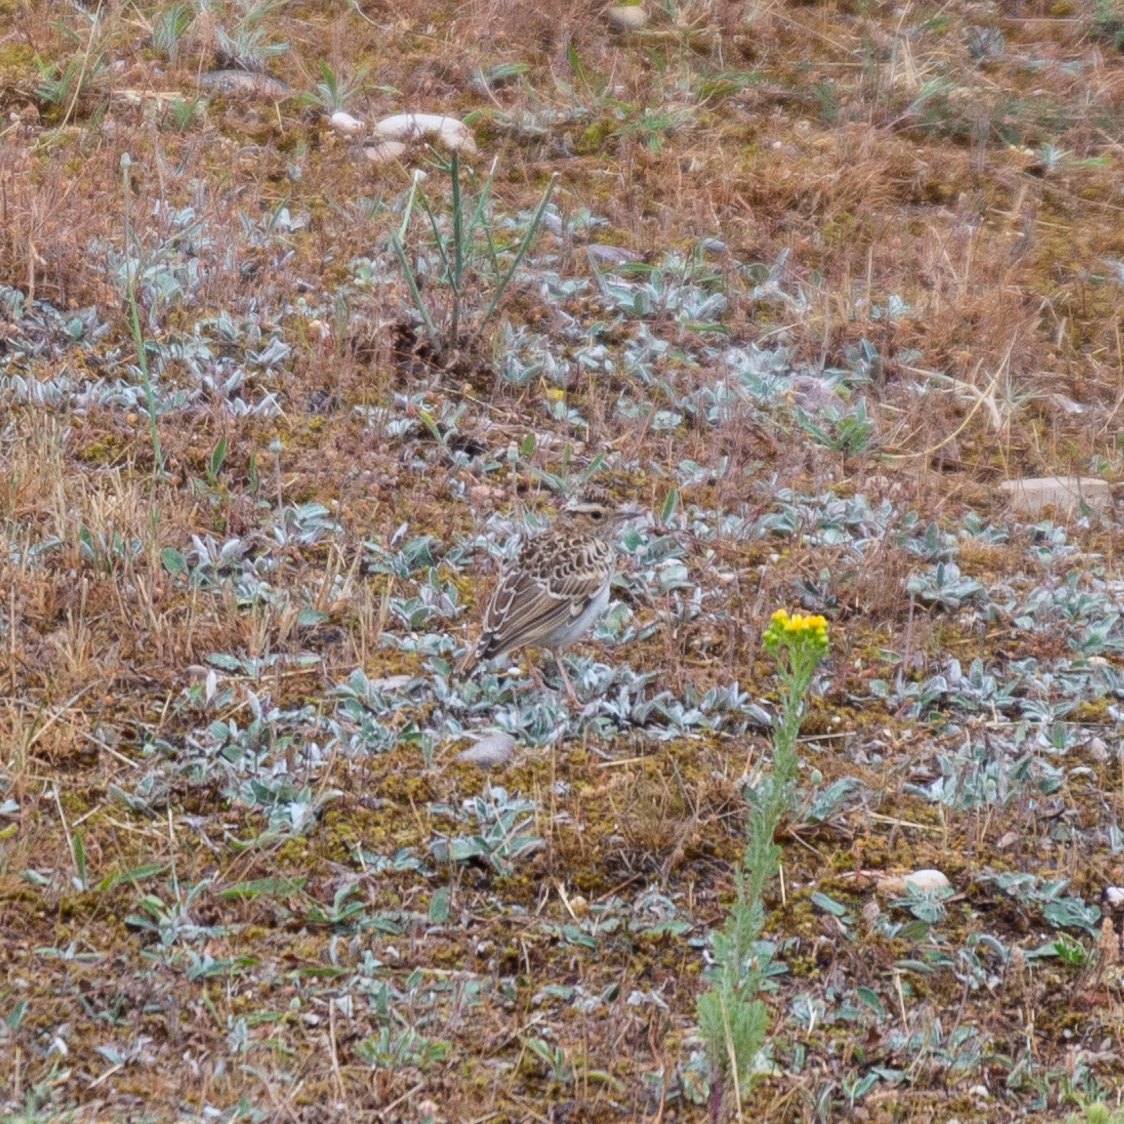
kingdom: Animalia
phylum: Chordata
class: Aves
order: Passeriformes
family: Alaudidae
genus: Lullula
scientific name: Lullula arborea
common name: Woodlark
